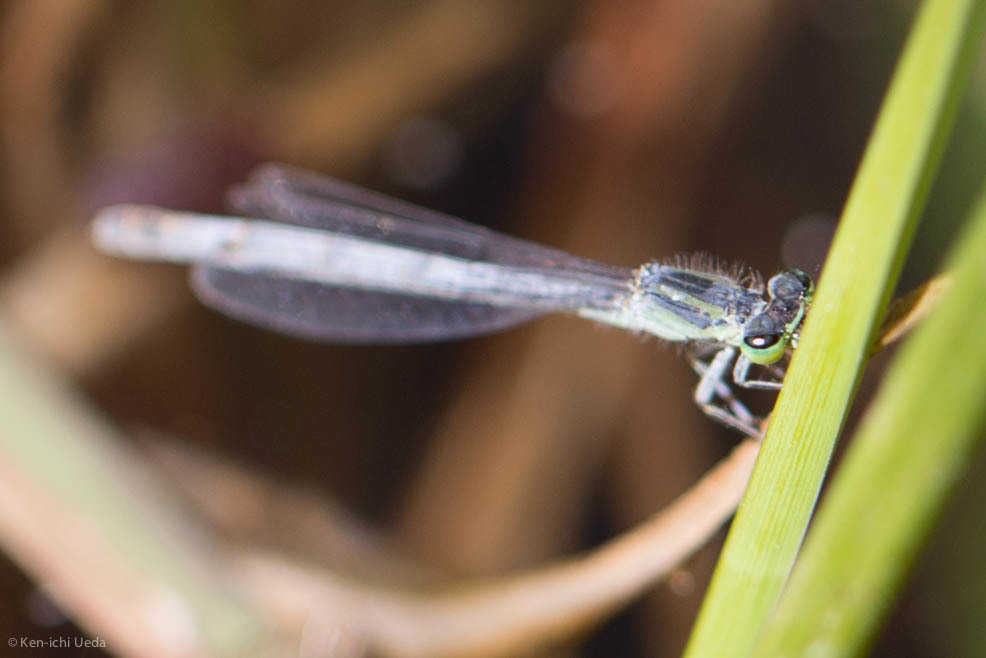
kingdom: Animalia
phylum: Arthropoda
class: Insecta
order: Odonata
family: Coenagrionidae
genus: Ischnura
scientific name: Ischnura perparva
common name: Western forktail
